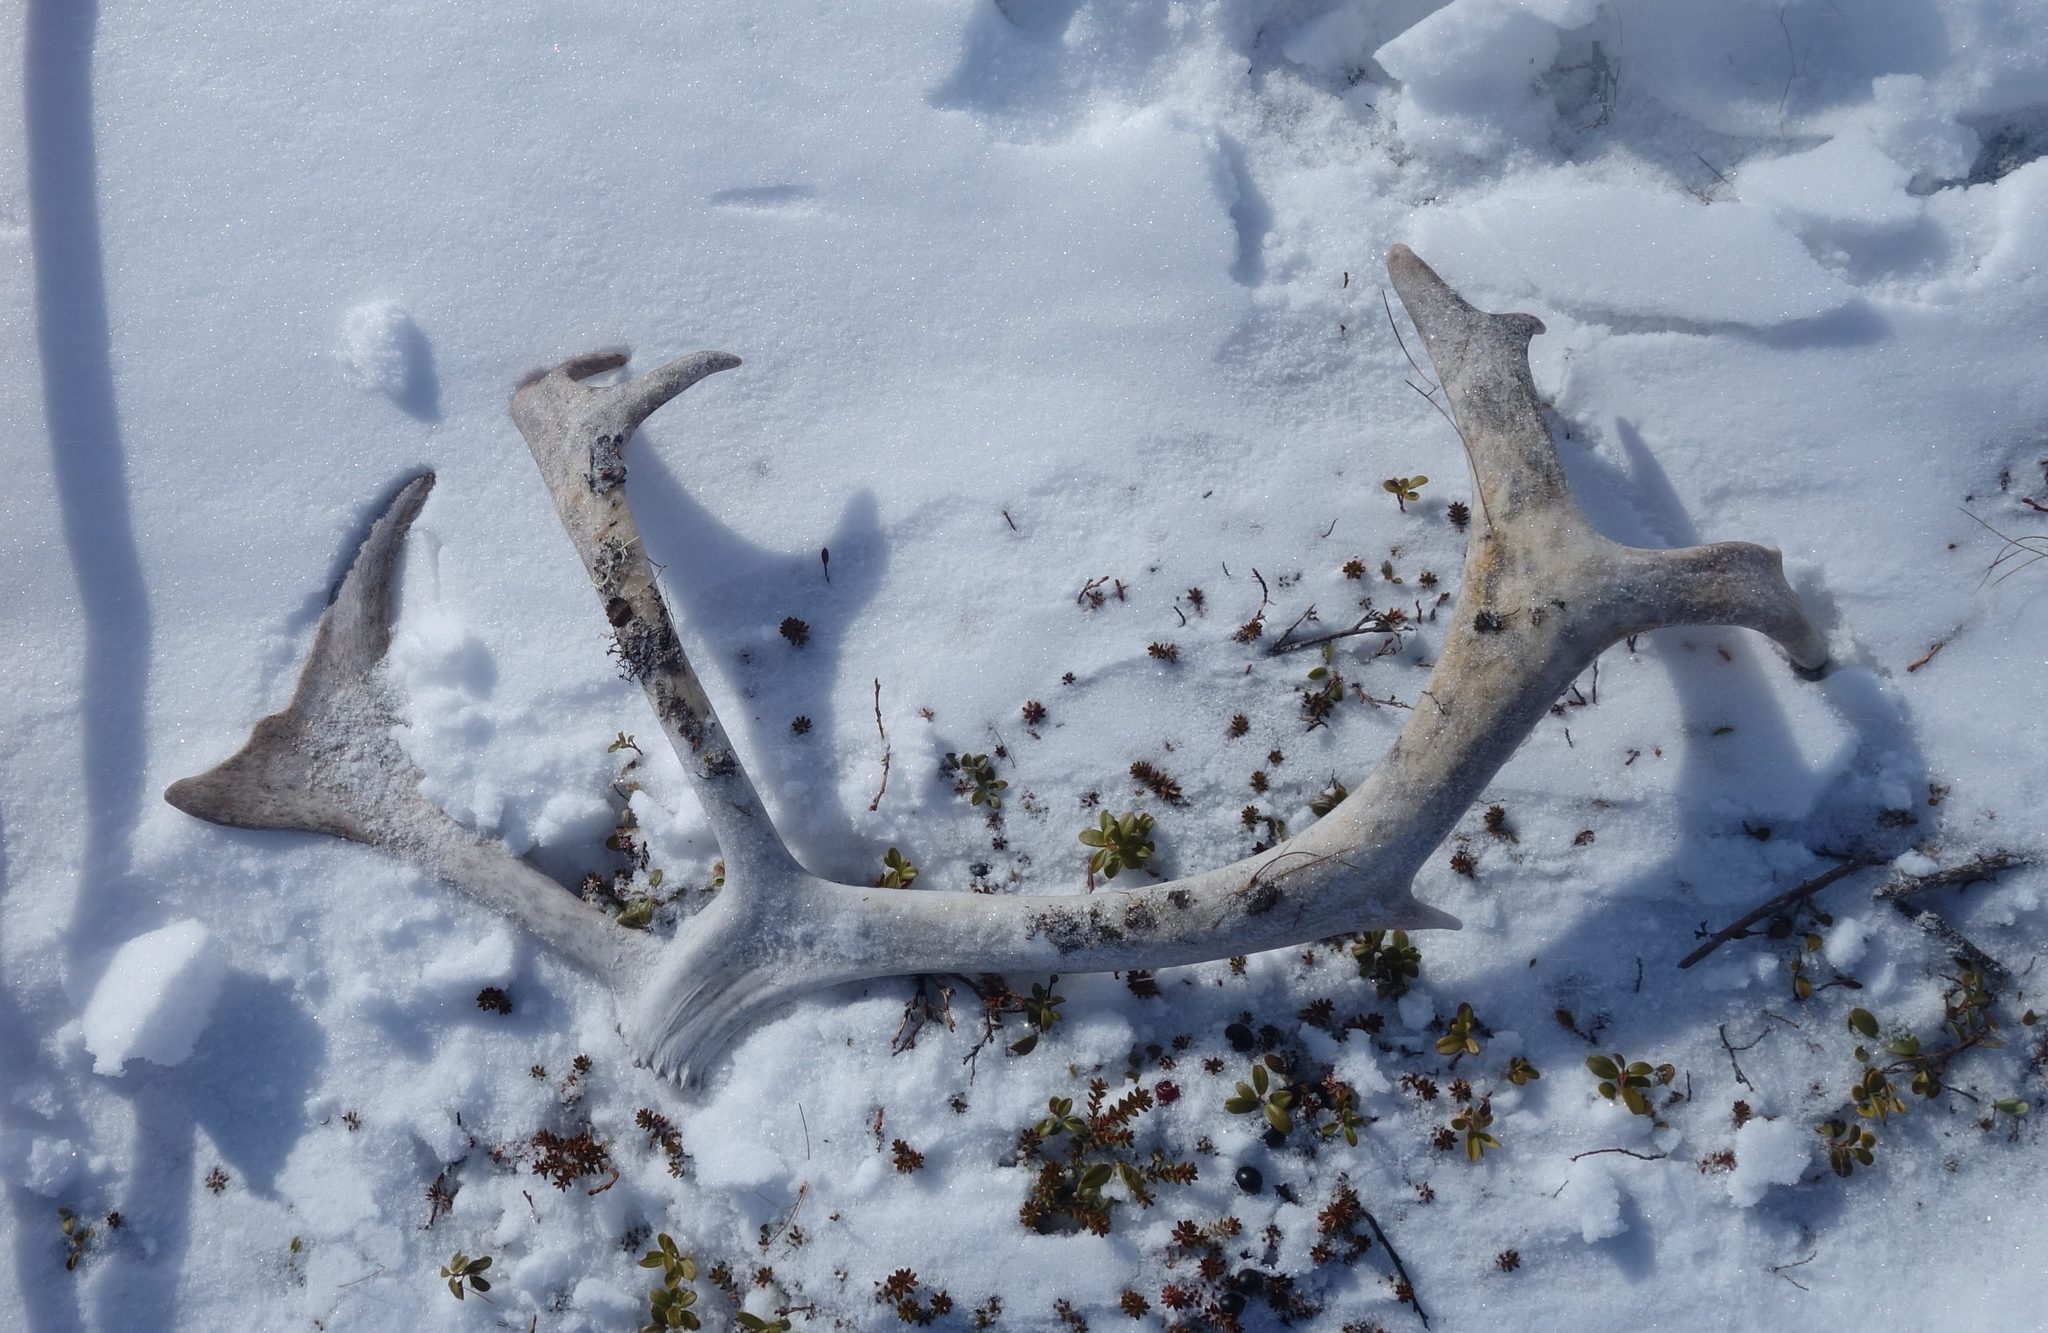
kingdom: Animalia
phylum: Chordata
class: Mammalia
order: Artiodactyla
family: Cervidae
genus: Rangifer
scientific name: Rangifer tarandus
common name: Reindeer
